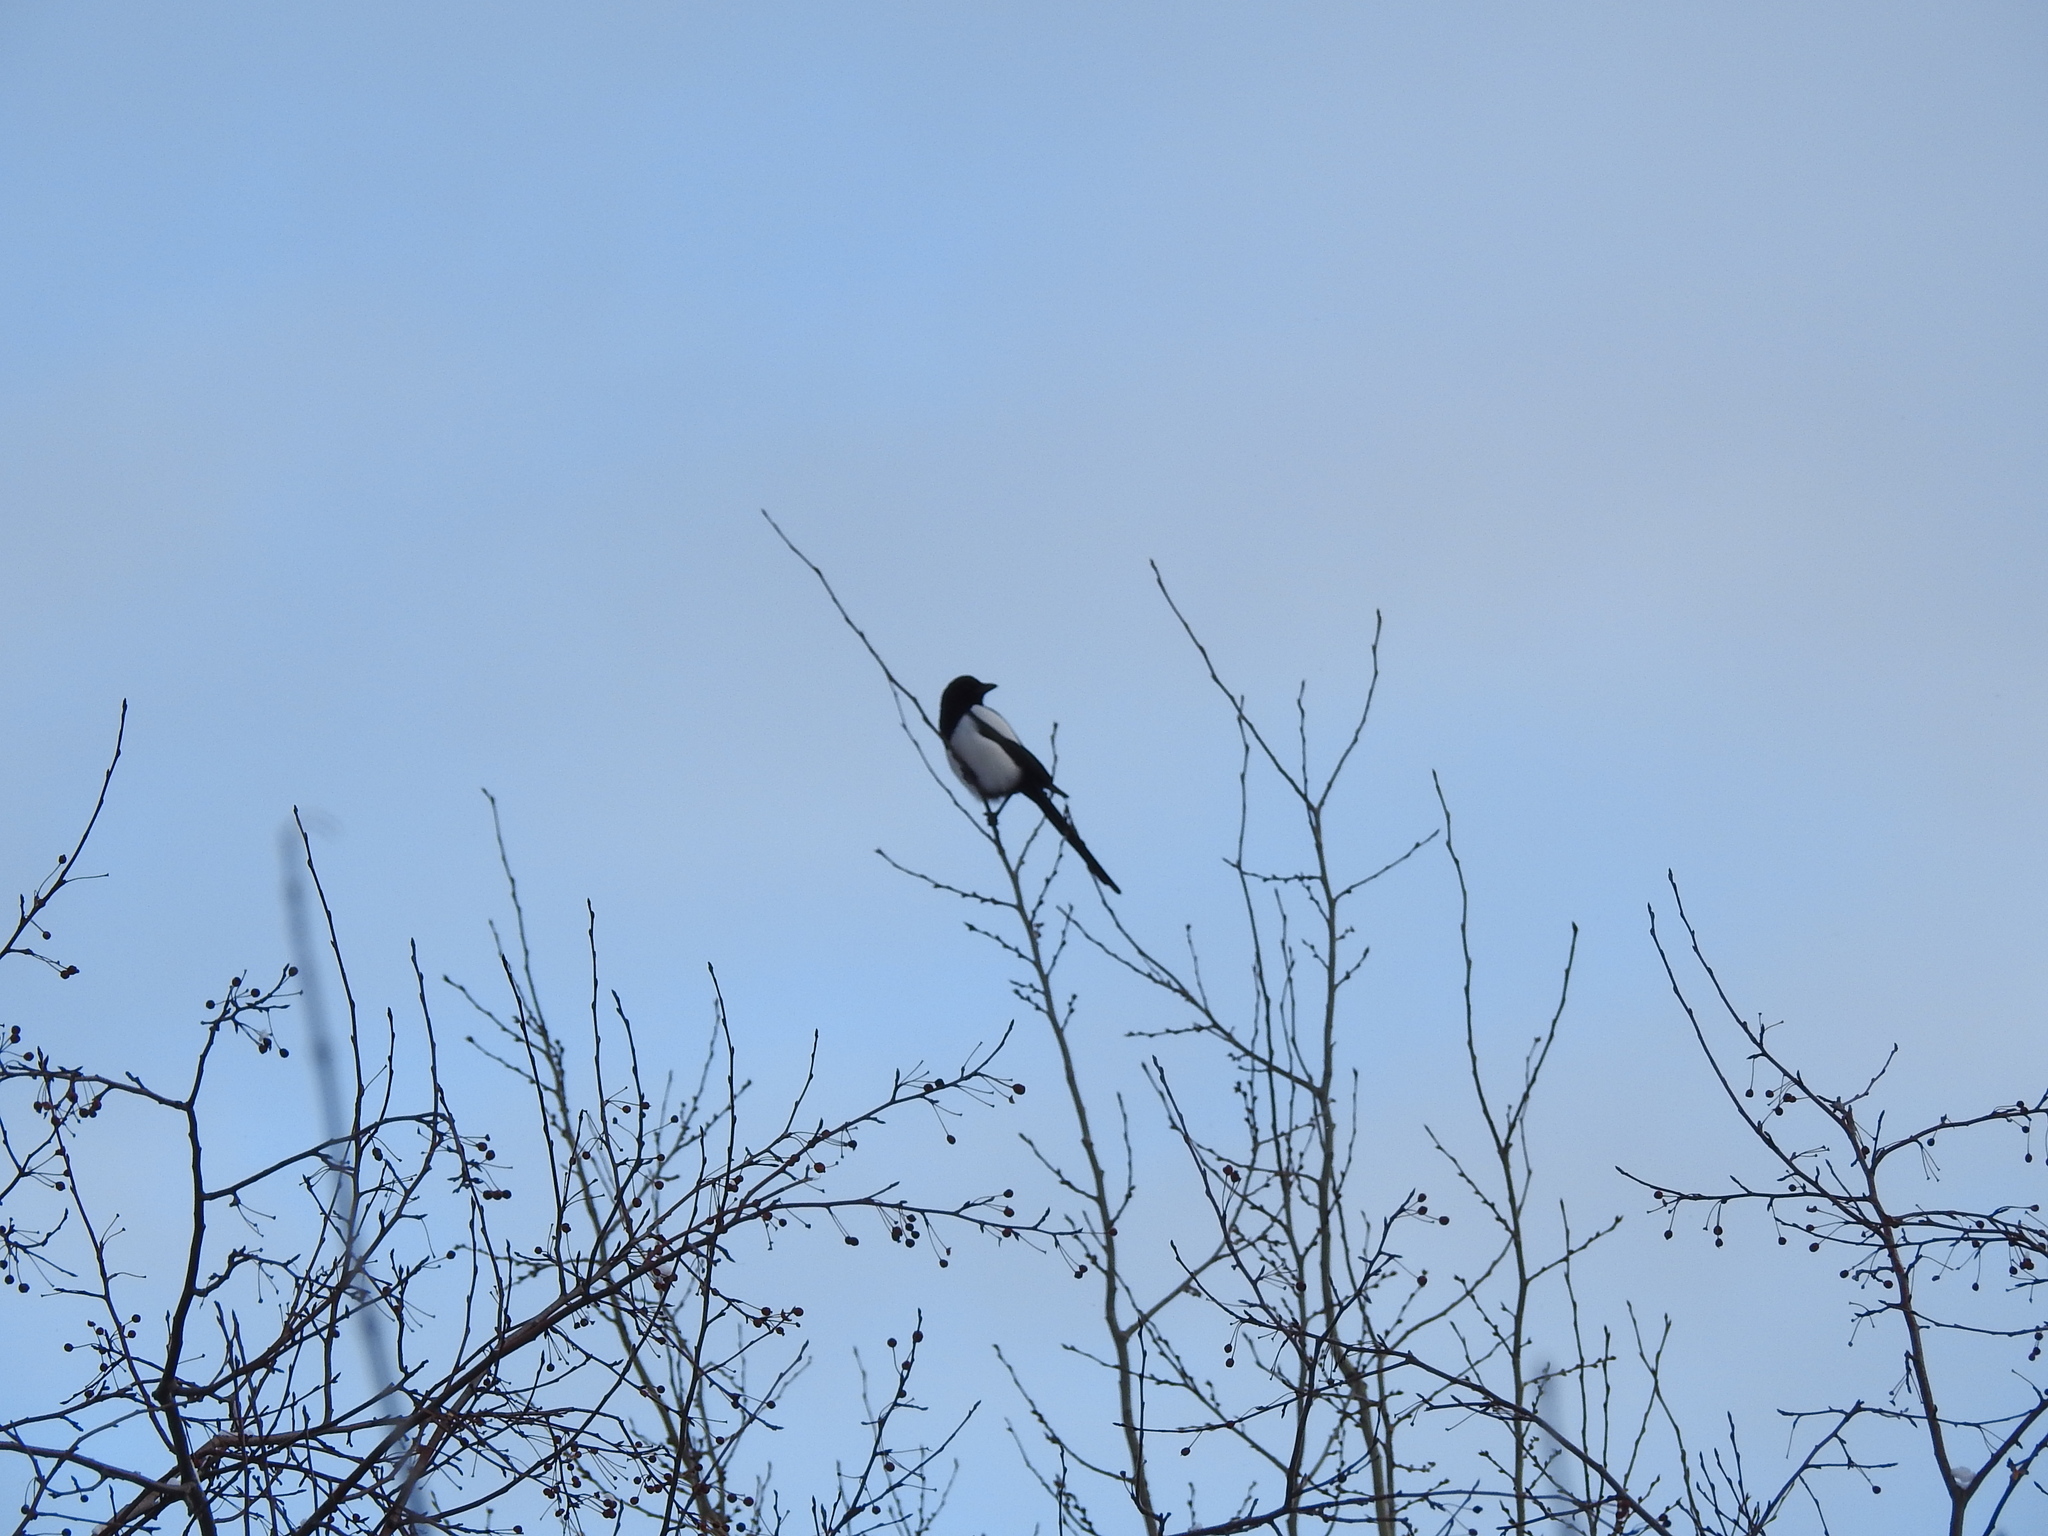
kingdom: Animalia
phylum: Chordata
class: Aves
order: Passeriformes
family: Corvidae
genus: Pica
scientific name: Pica pica
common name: Eurasian magpie
